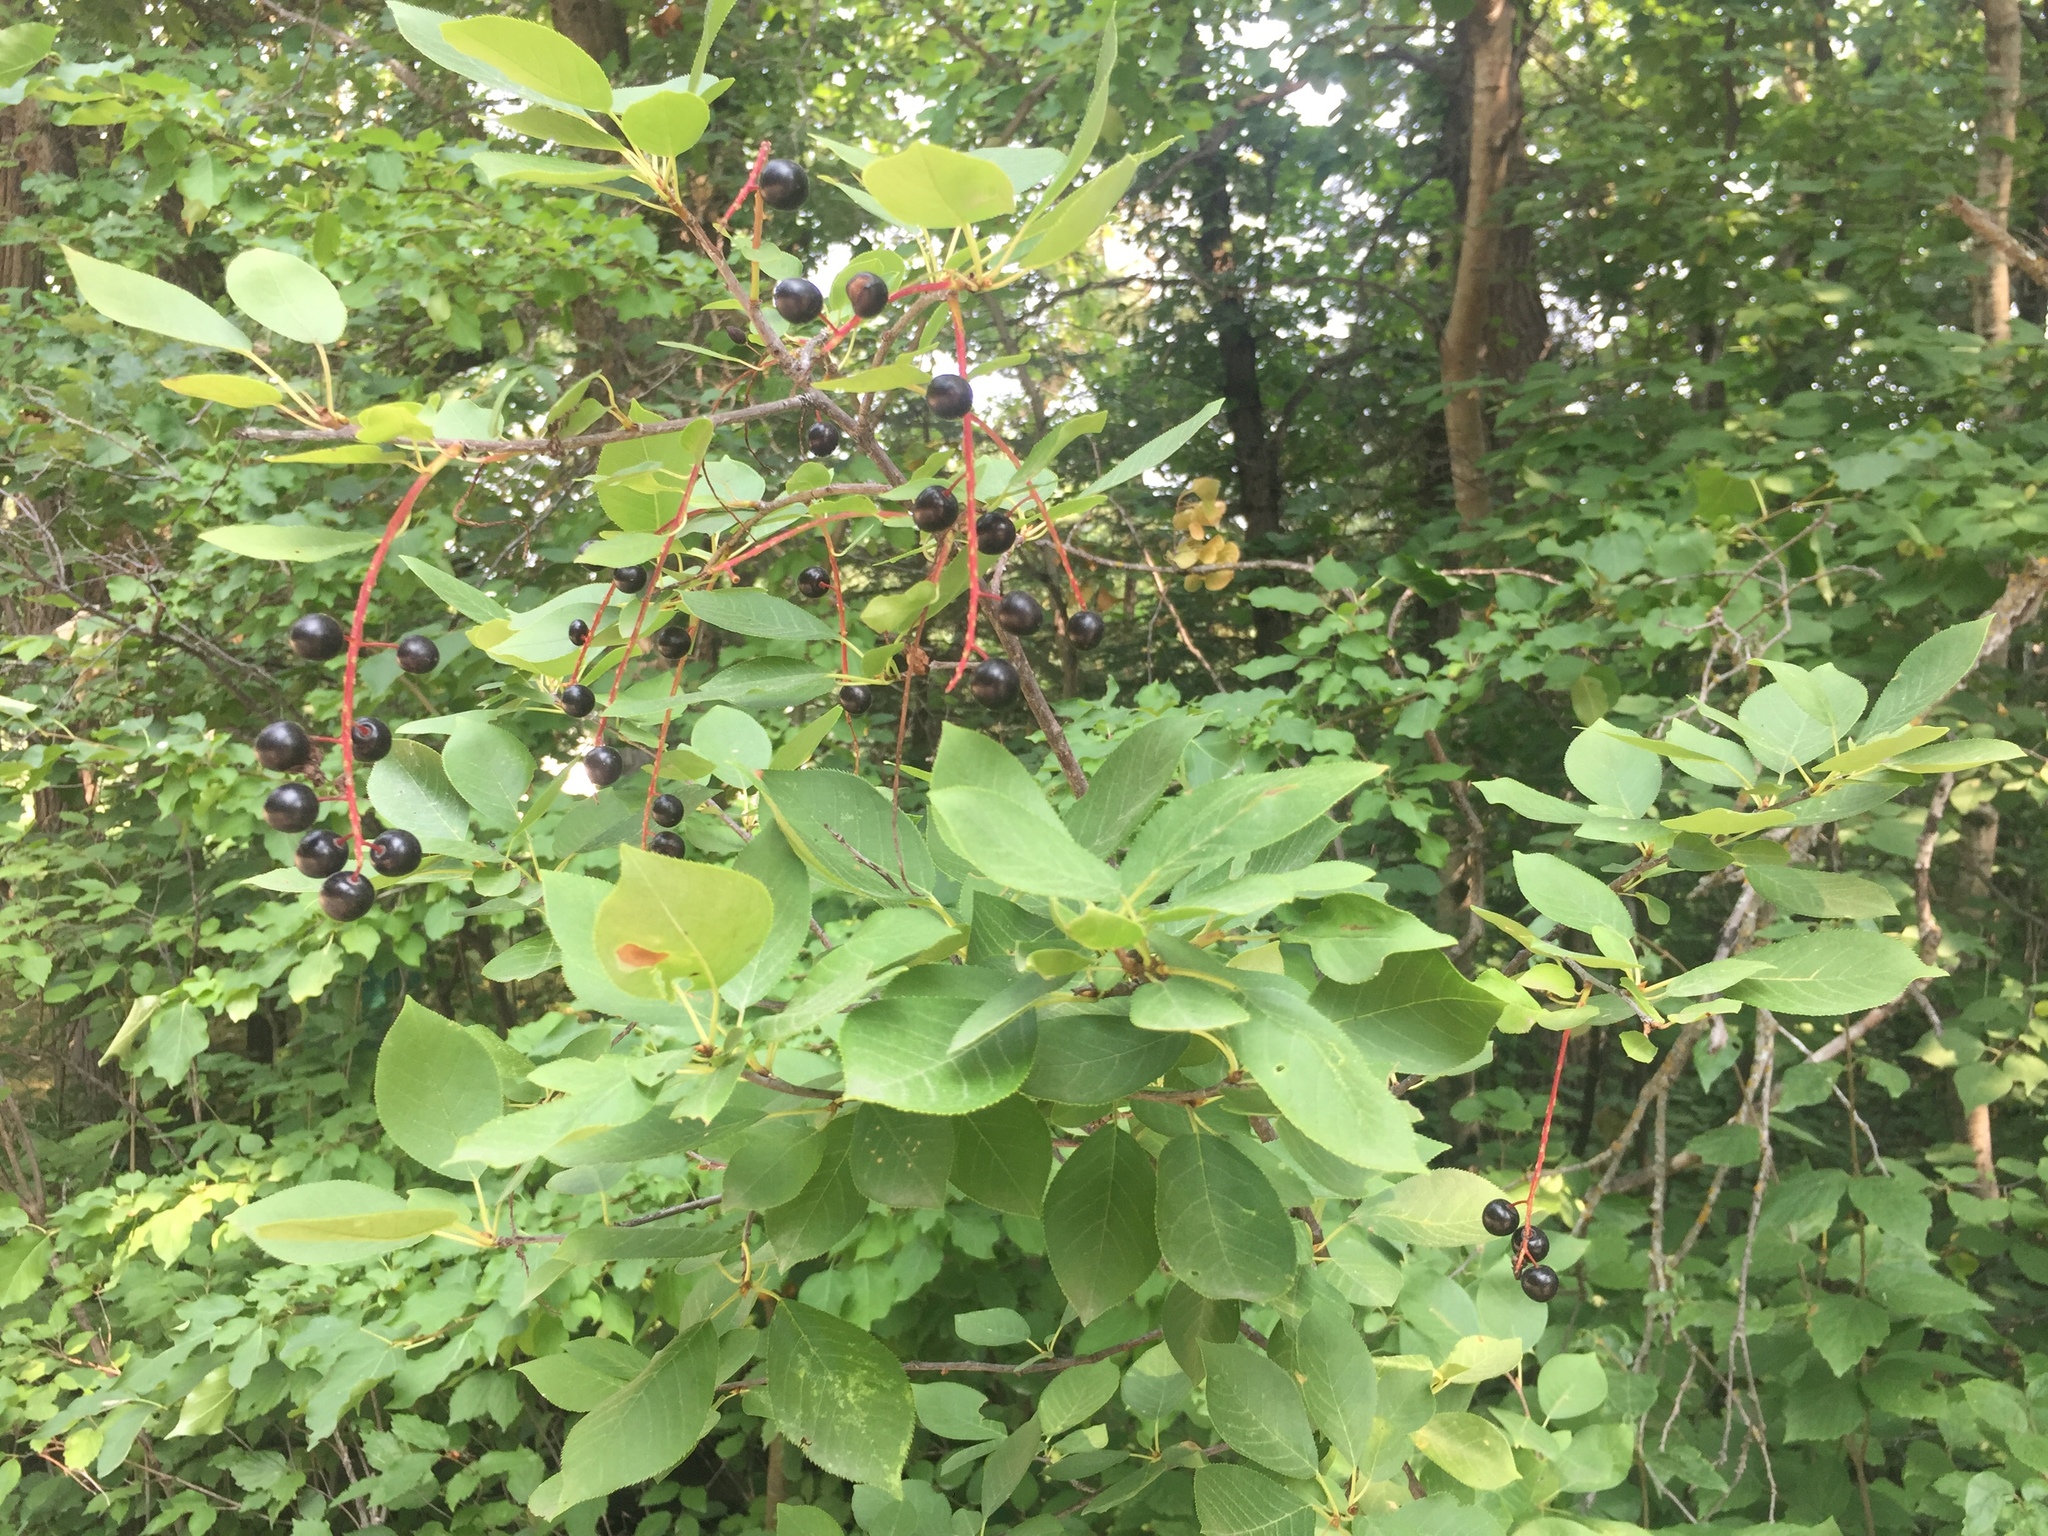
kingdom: Plantae
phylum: Tracheophyta
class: Magnoliopsida
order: Rosales
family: Rosaceae
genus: Prunus
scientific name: Prunus virginiana
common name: Chokecherry
